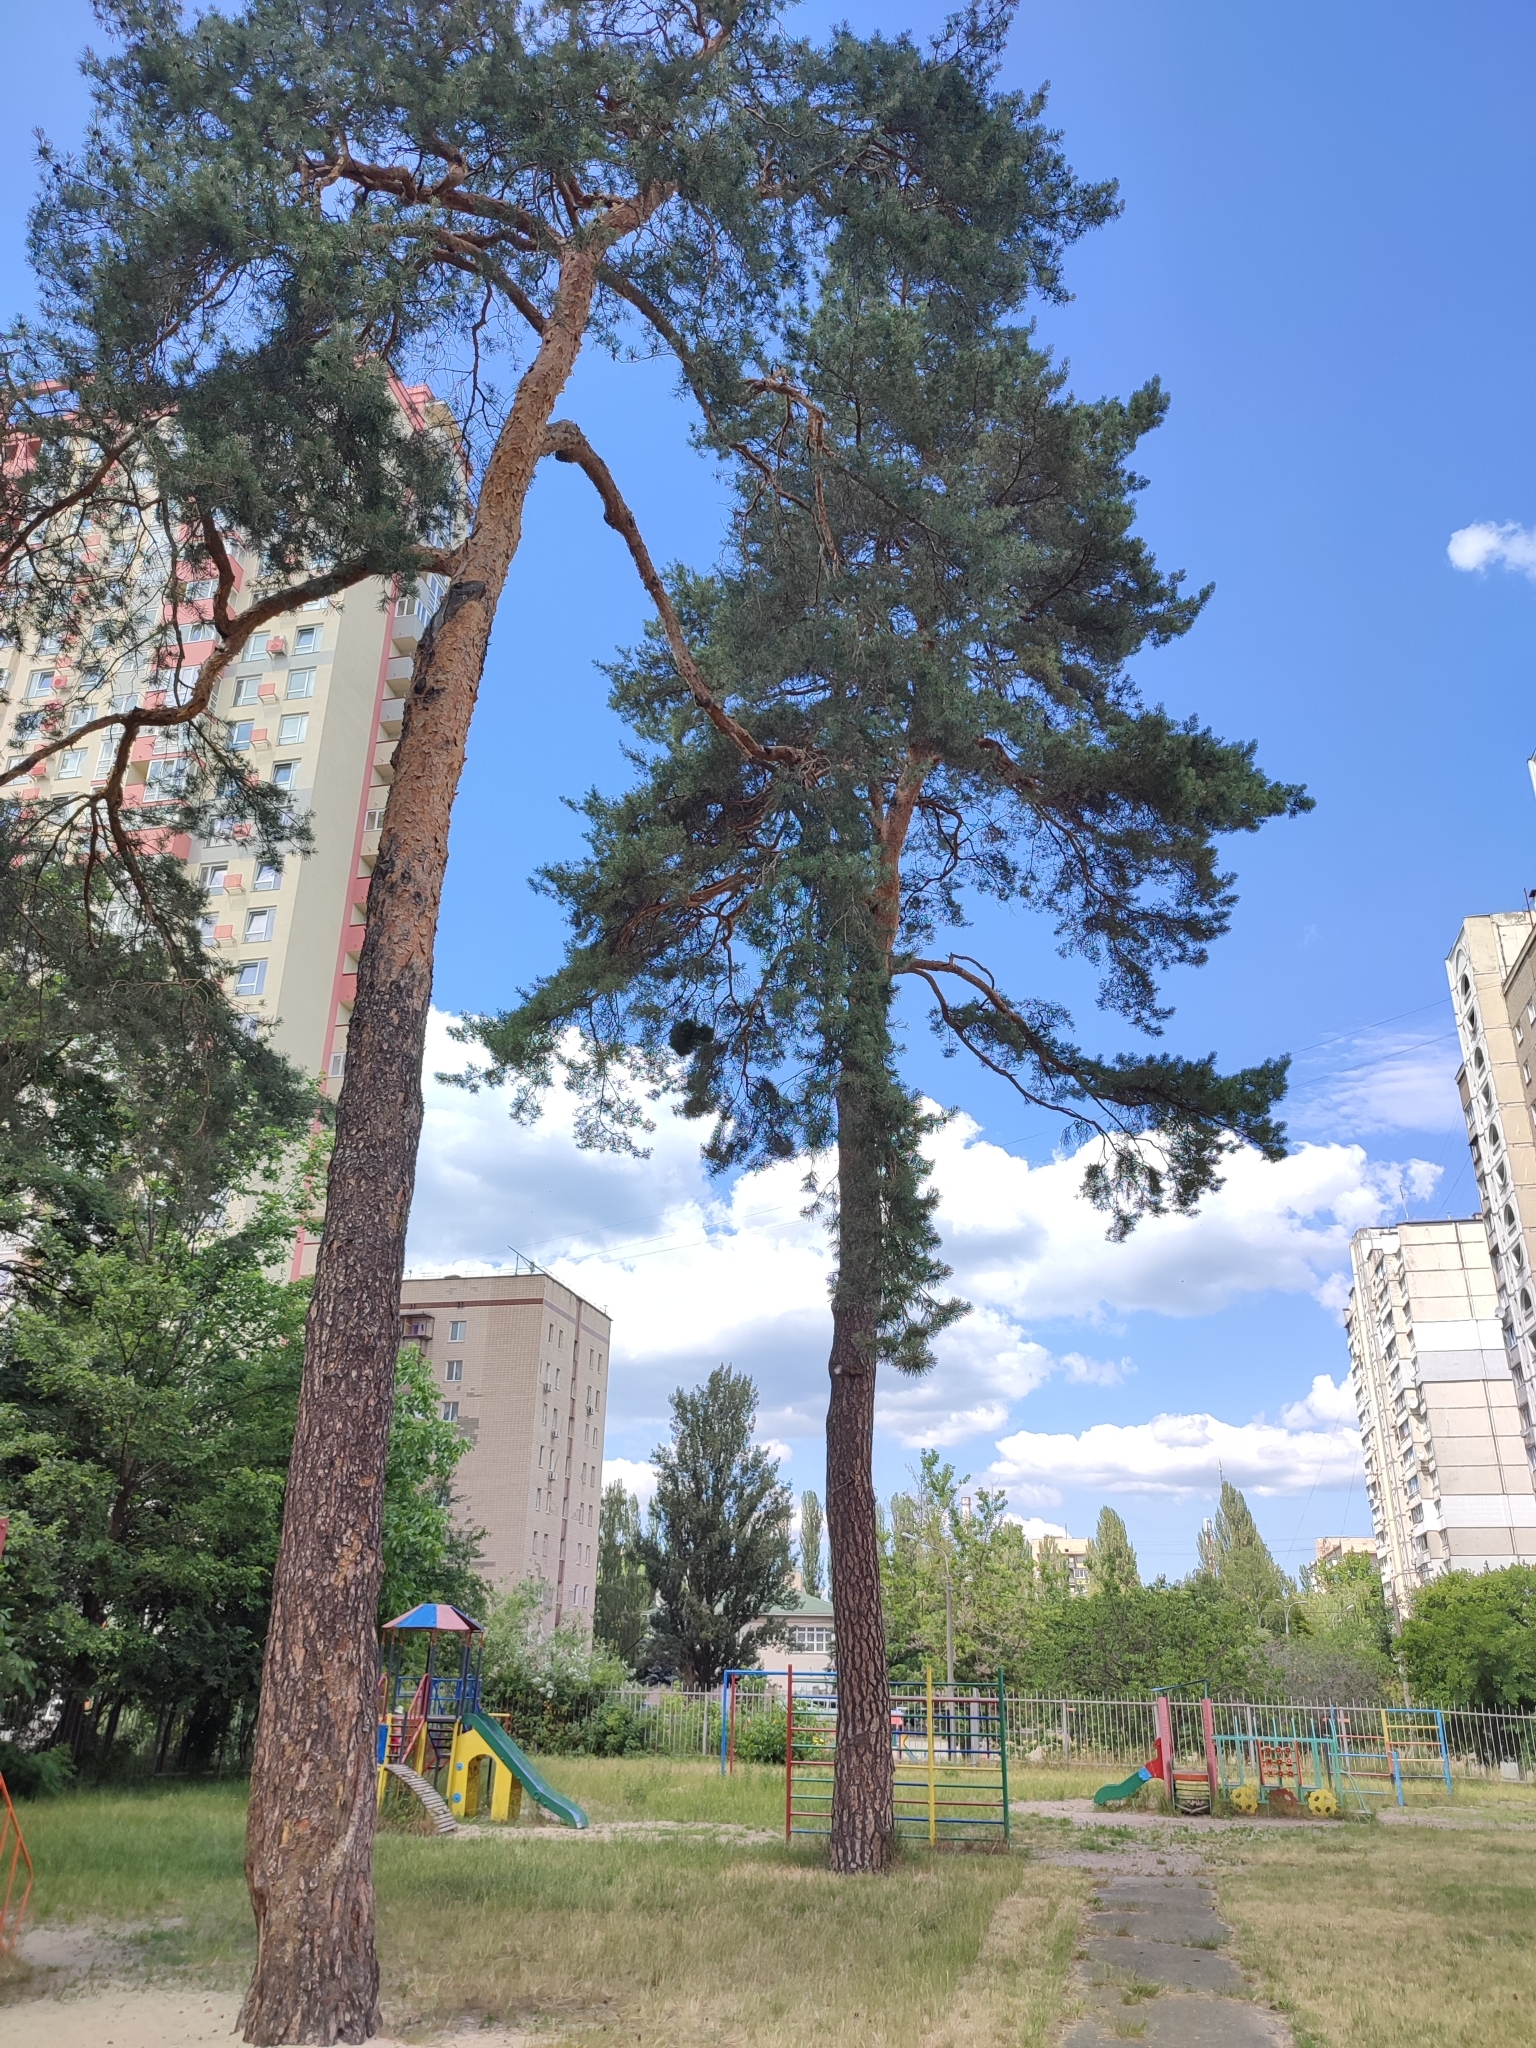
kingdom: Plantae
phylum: Tracheophyta
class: Pinopsida
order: Pinales
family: Pinaceae
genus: Pinus
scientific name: Pinus sylvestris
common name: Scots pine
